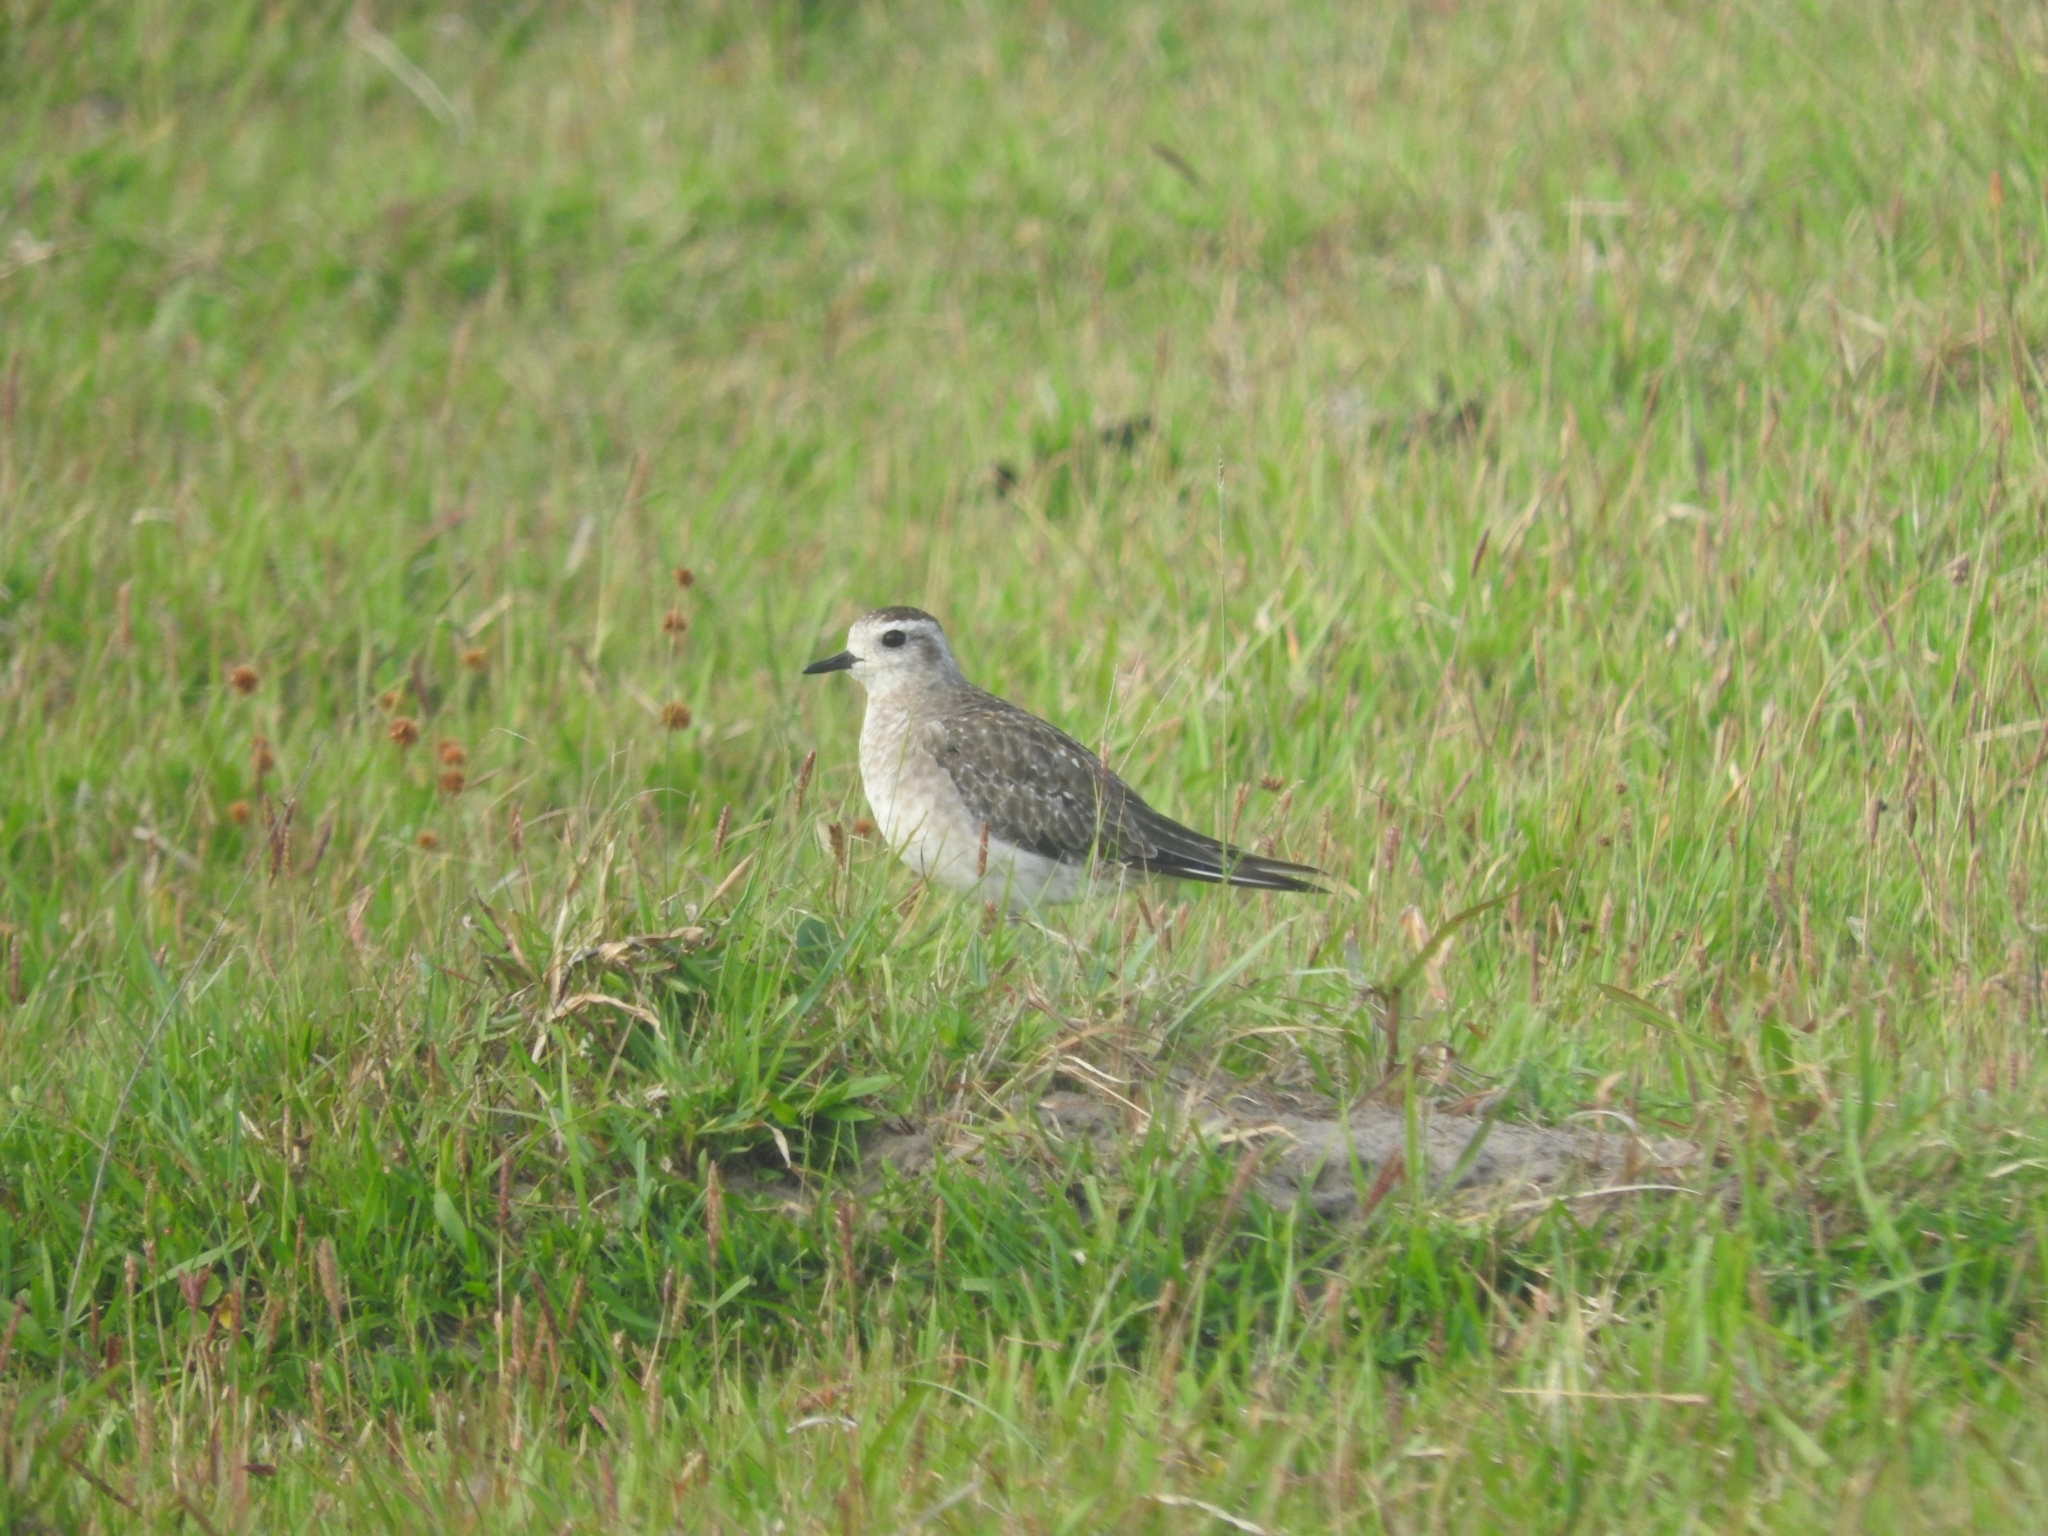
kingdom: Animalia
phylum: Chordata
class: Aves
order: Charadriiformes
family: Charadriidae
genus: Pluvialis
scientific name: Pluvialis dominica
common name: American golden plover
